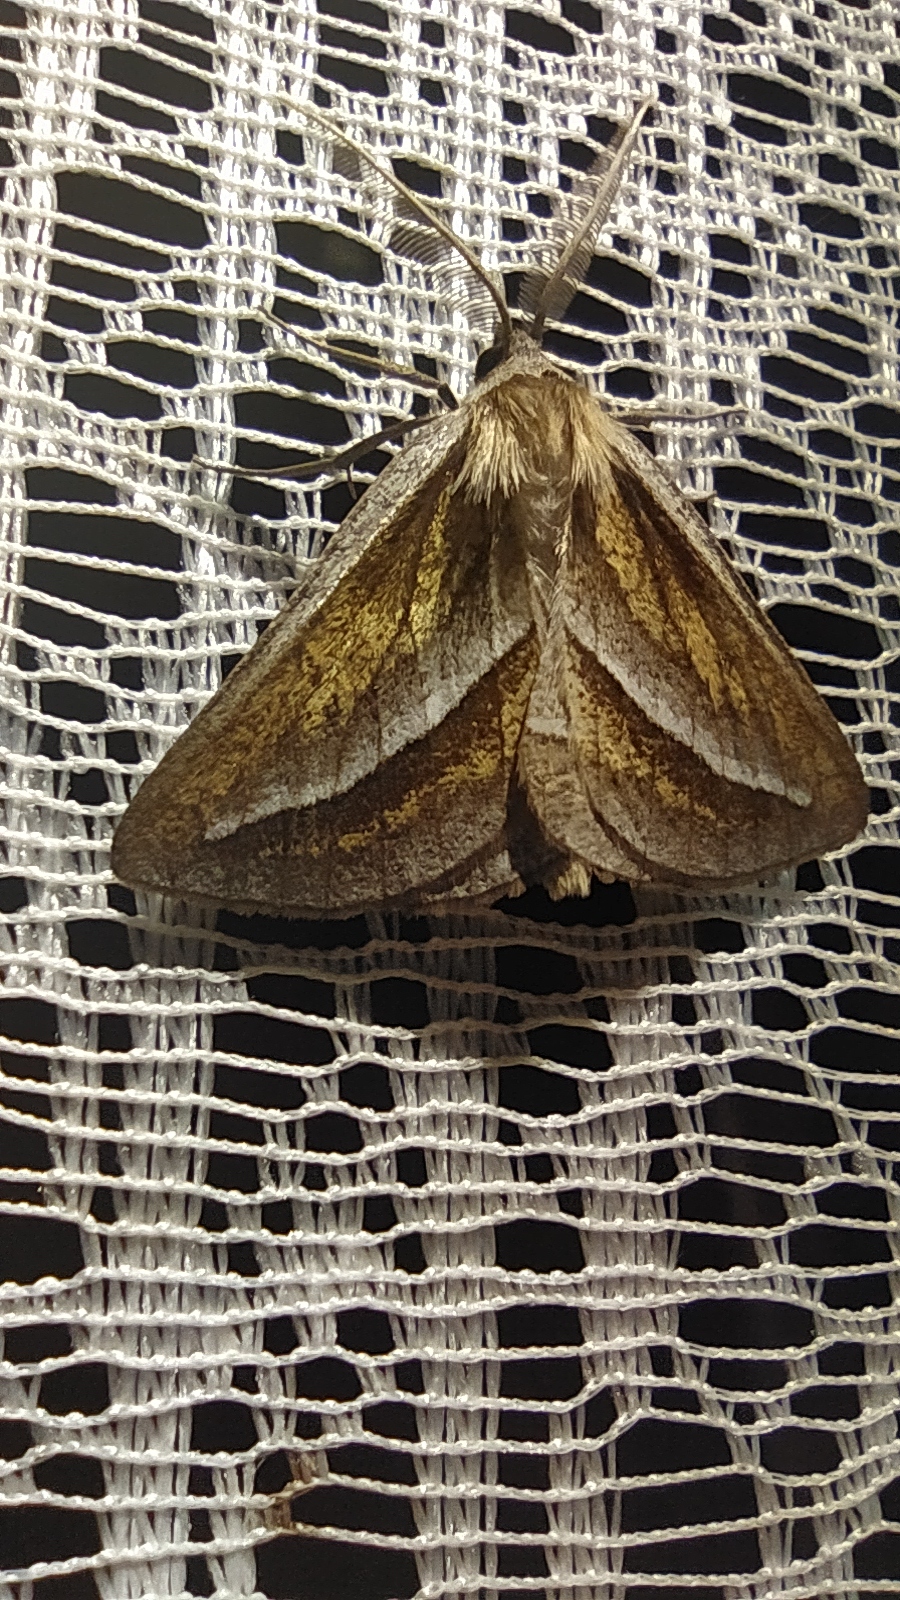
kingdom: Animalia
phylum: Arthropoda
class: Insecta
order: Lepidoptera
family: Geometridae
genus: Chariaspilates
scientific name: Chariaspilates formosaria
